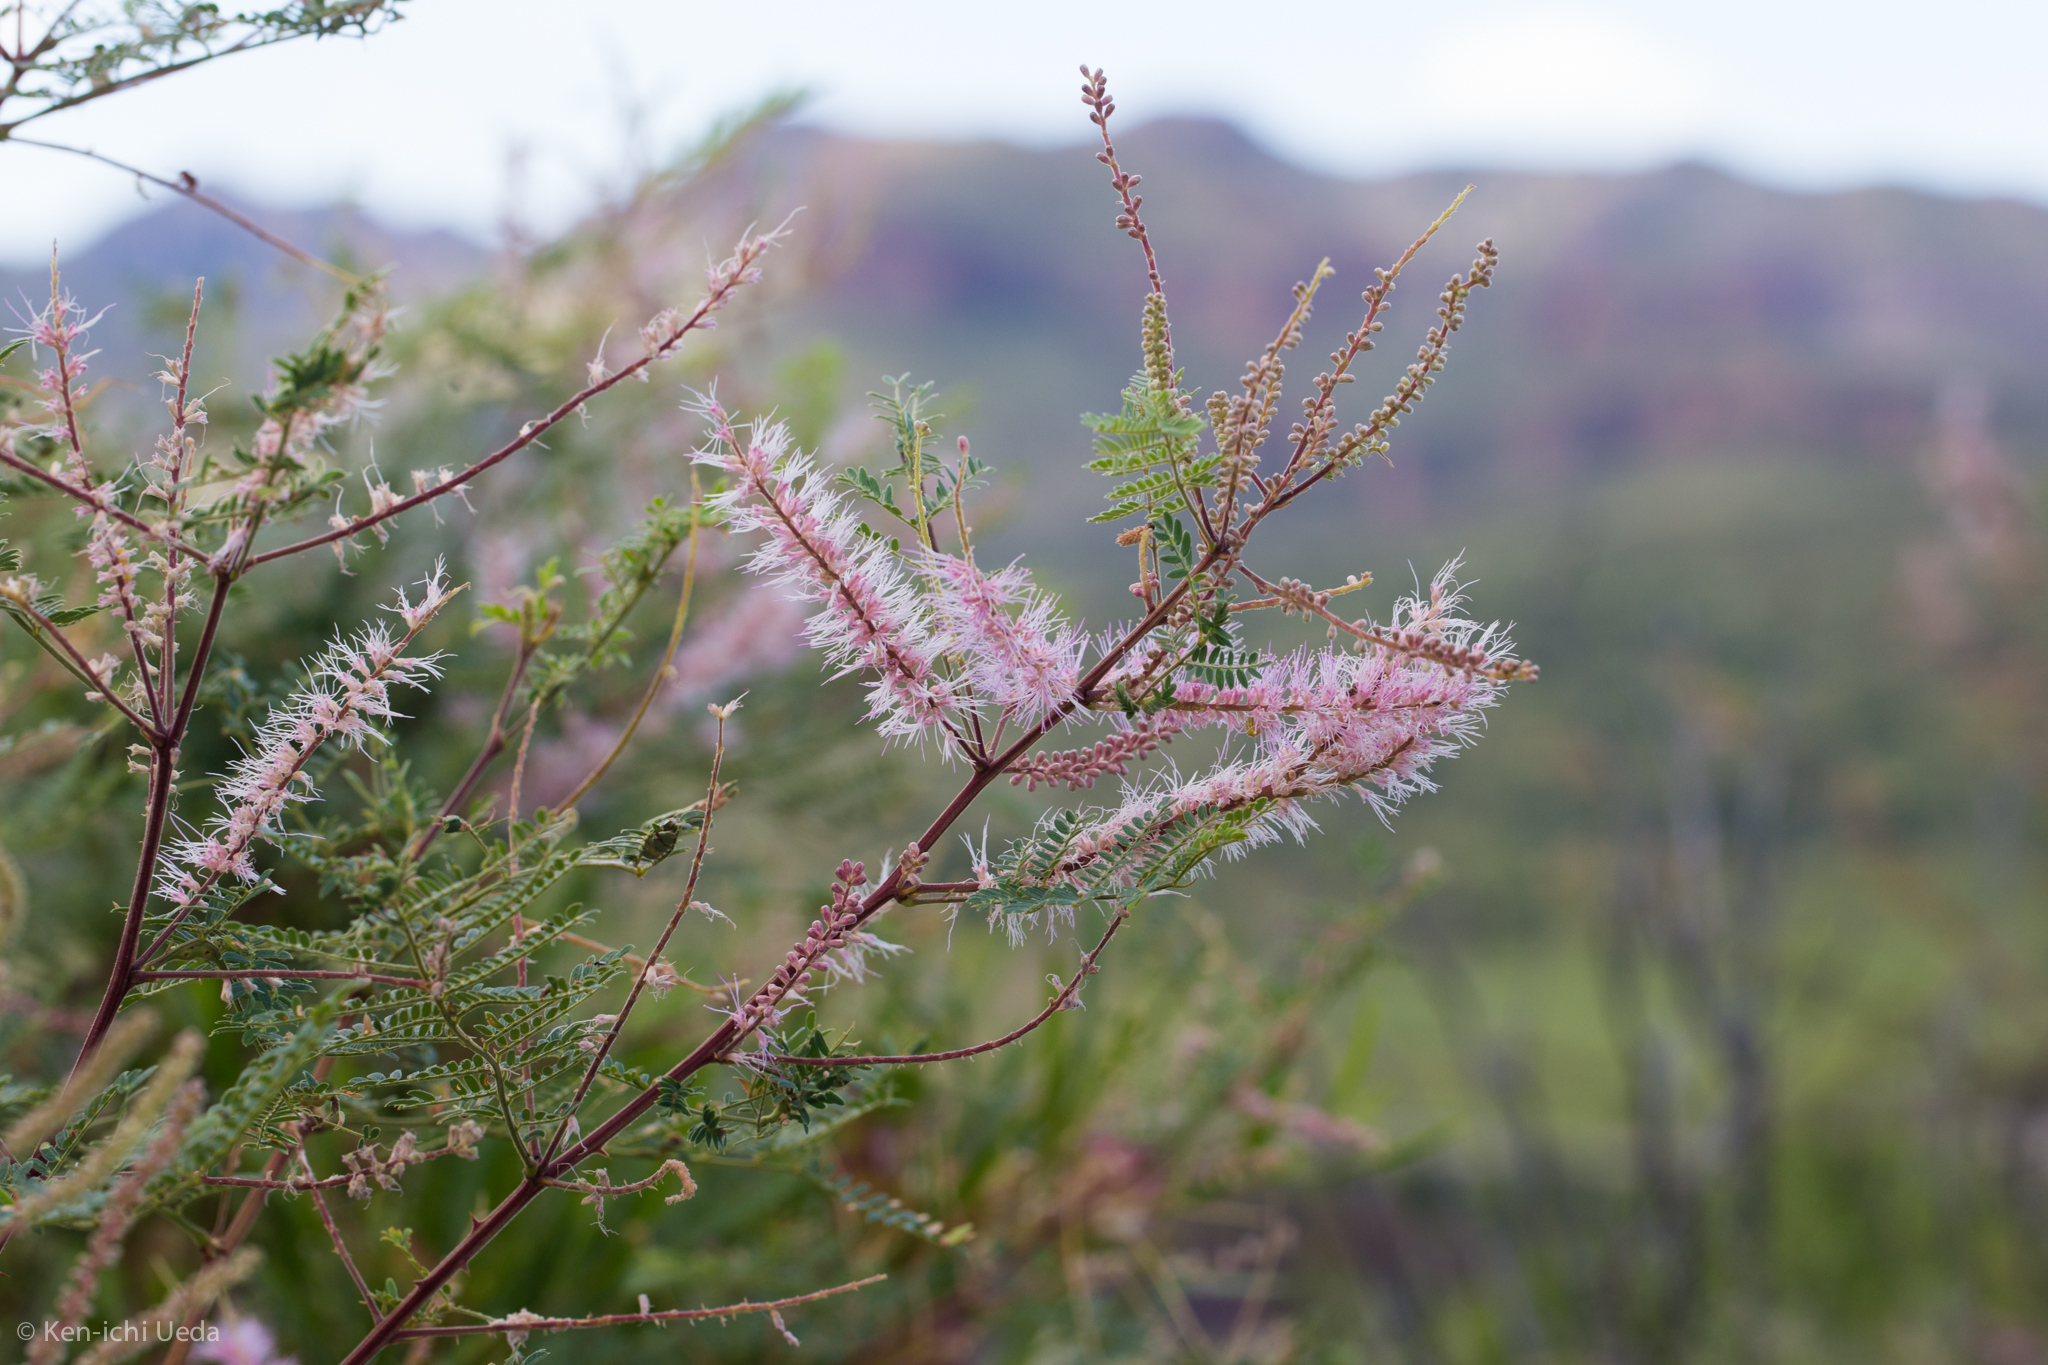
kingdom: Plantae
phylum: Tracheophyta
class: Magnoliopsida
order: Fabales
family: Fabaceae
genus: Mimosa
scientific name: Mimosa dysocarpa
